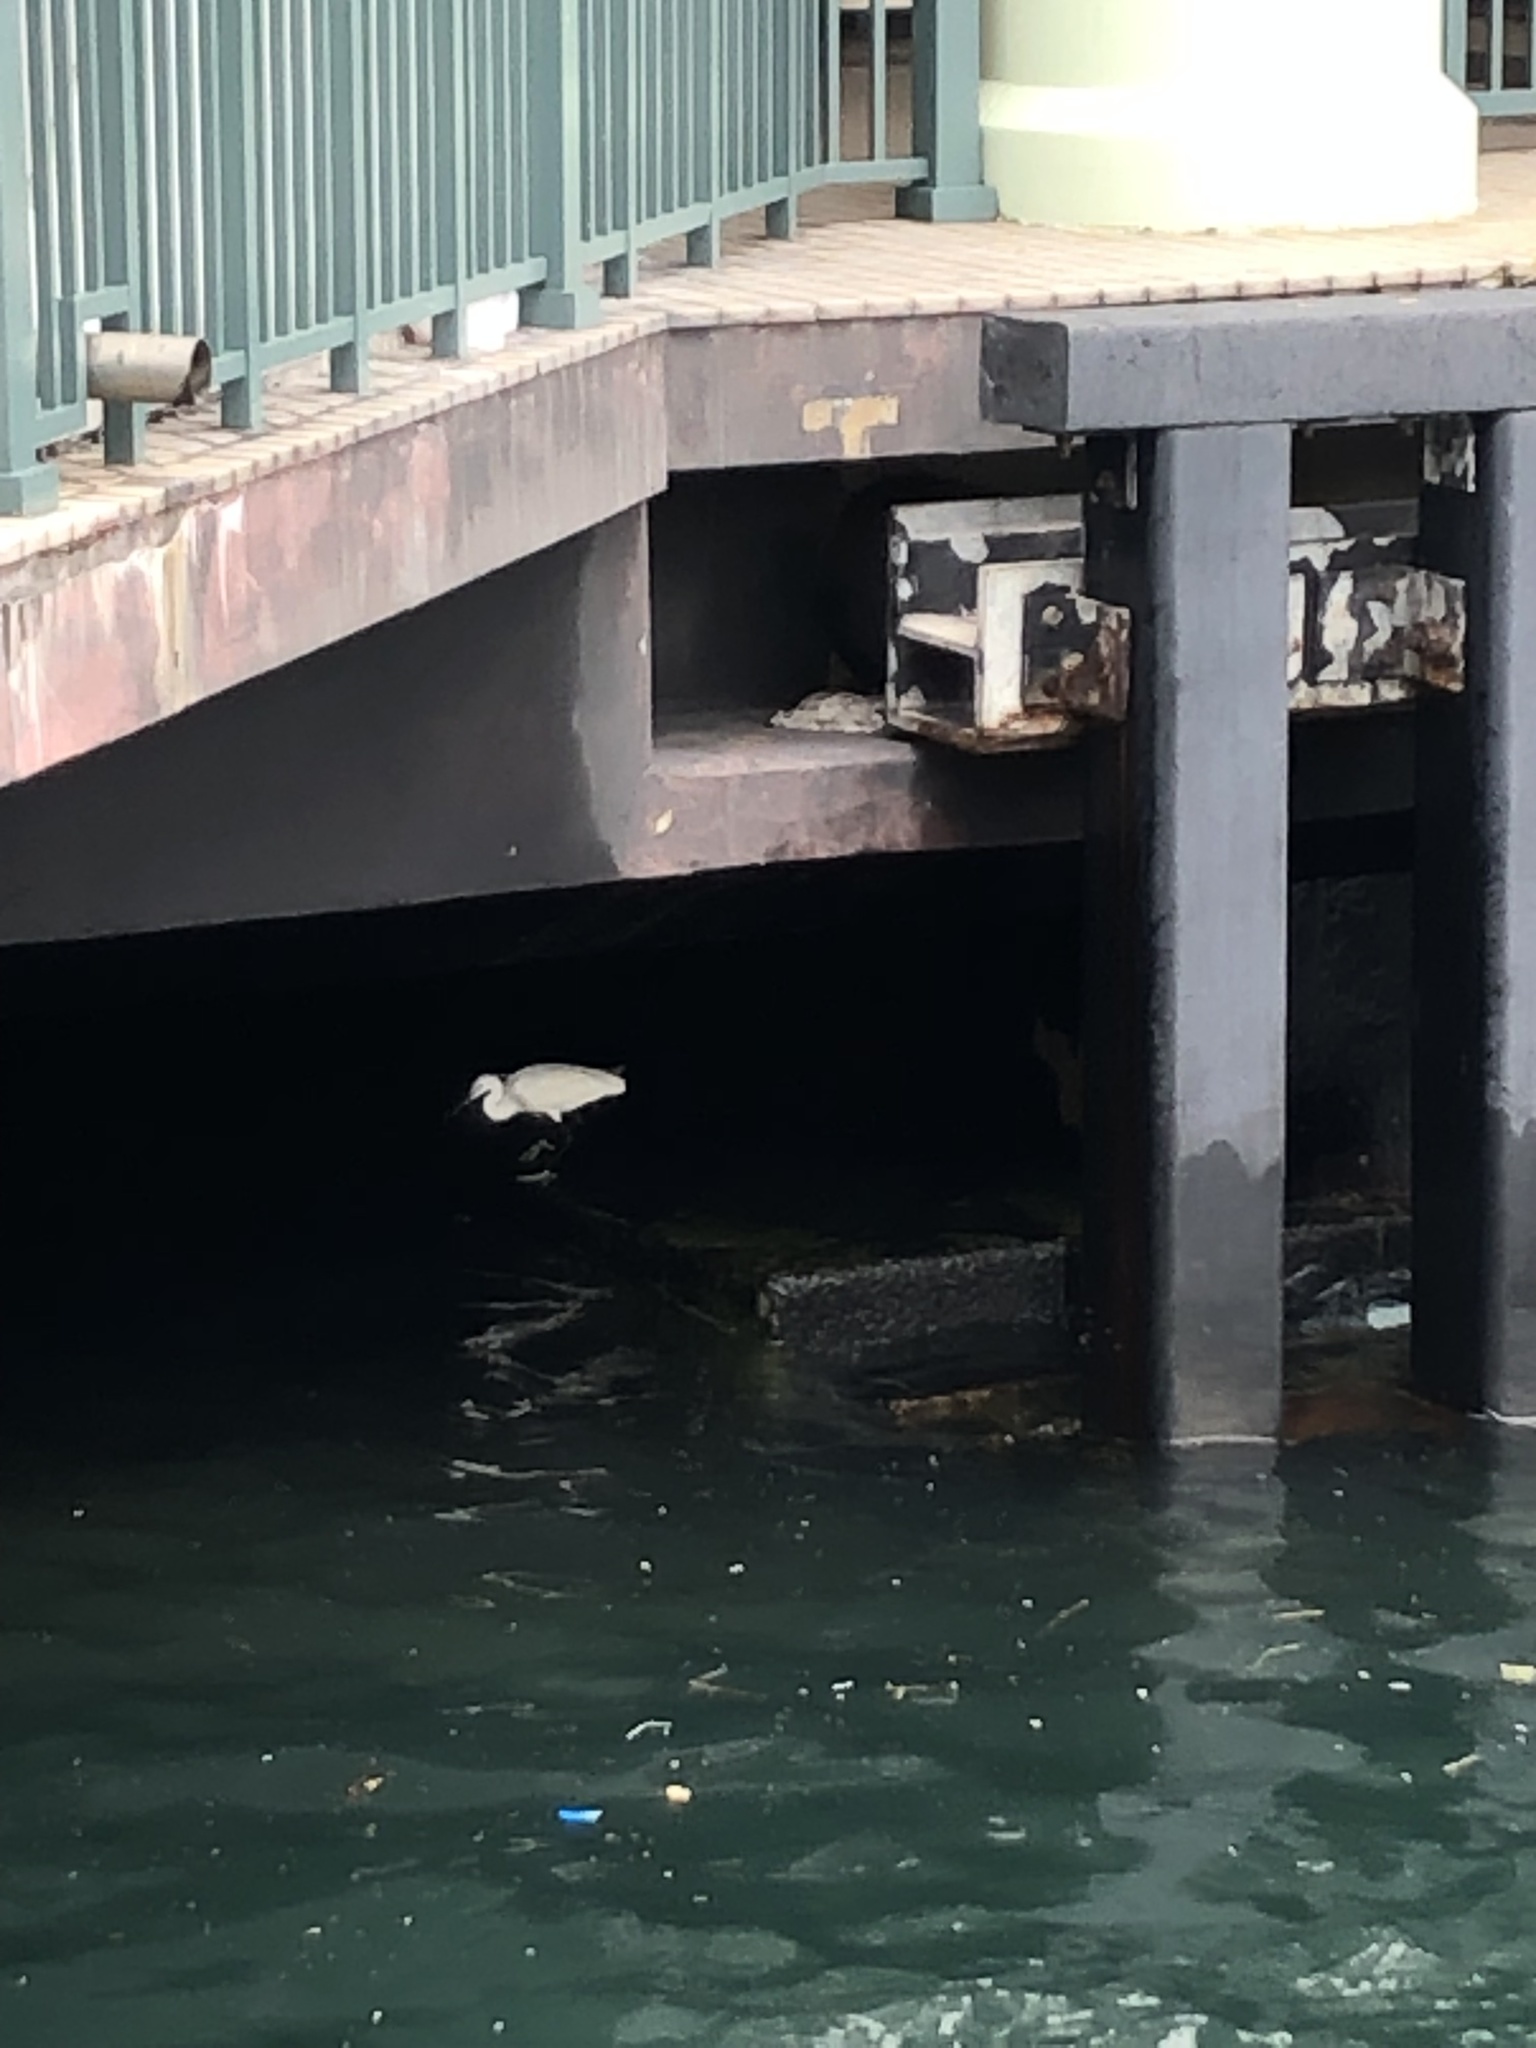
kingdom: Animalia
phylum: Chordata
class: Aves
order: Pelecaniformes
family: Ardeidae
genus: Egretta
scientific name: Egretta garzetta
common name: Little egret
